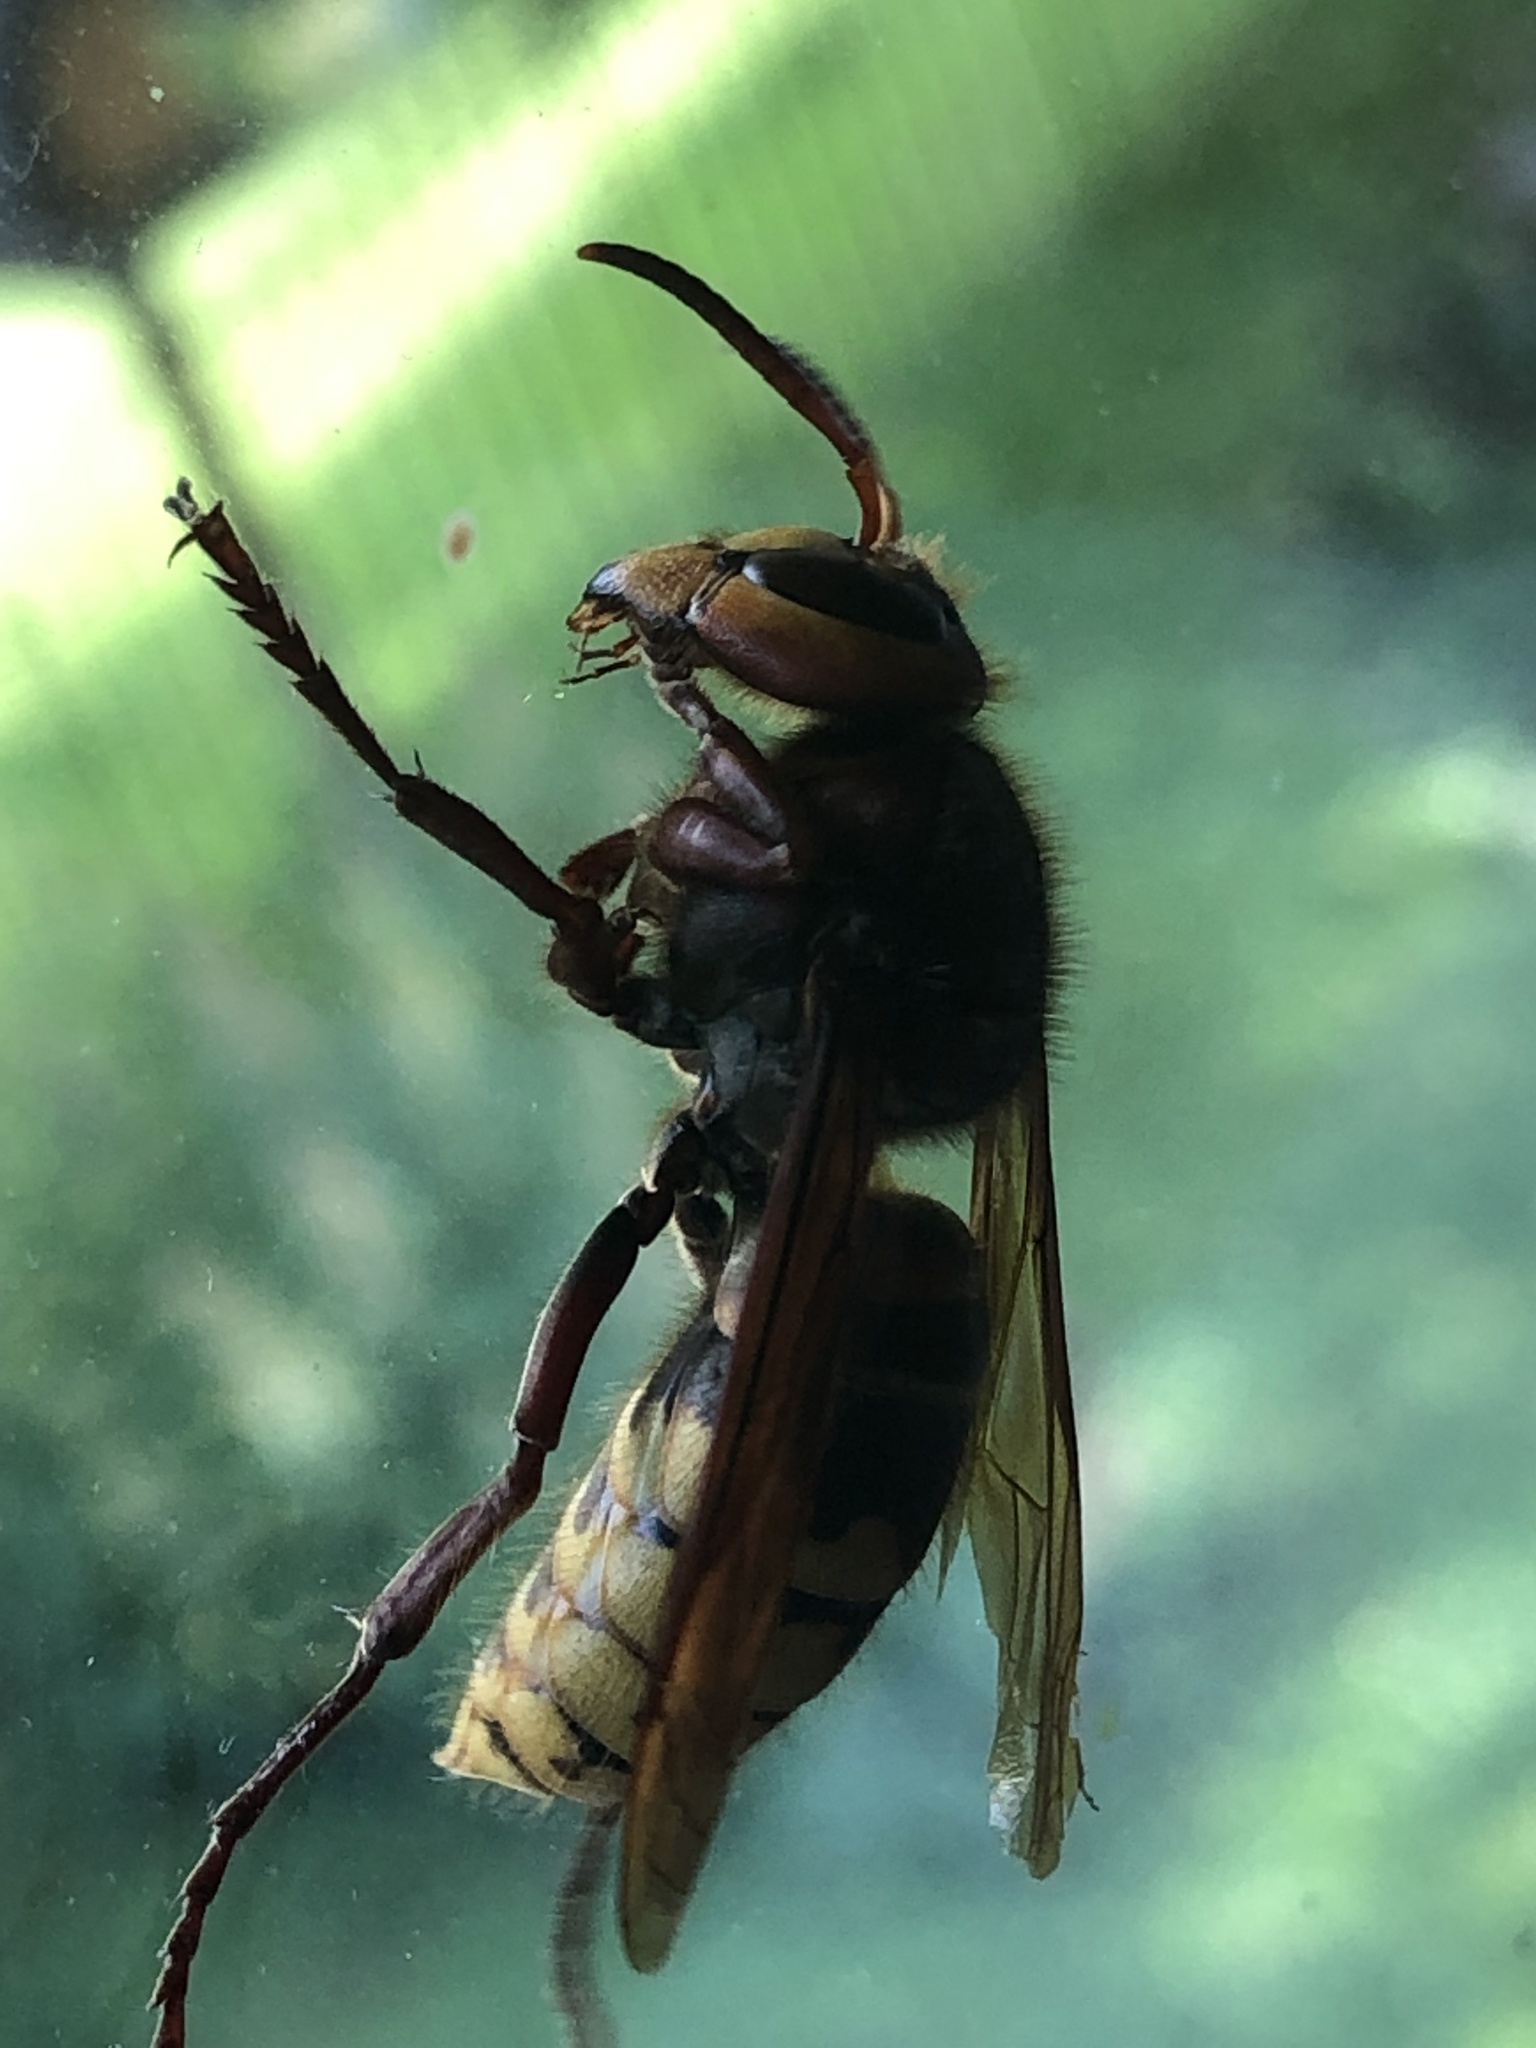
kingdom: Animalia
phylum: Arthropoda
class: Insecta
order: Hymenoptera
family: Vespidae
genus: Vespa
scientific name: Vespa crabro
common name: Hornet
